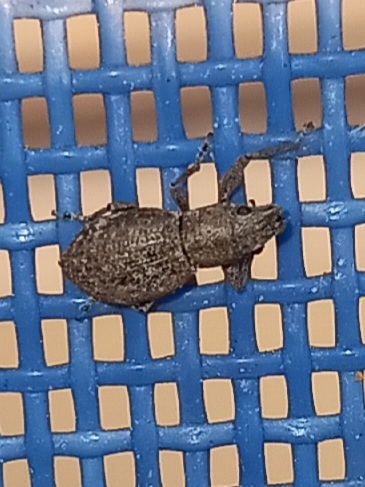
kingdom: Animalia
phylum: Arthropoda
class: Insecta
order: Coleoptera
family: Curculionidae
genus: Naupactus
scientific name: Naupactus cervinus
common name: Fuller rose beetle
